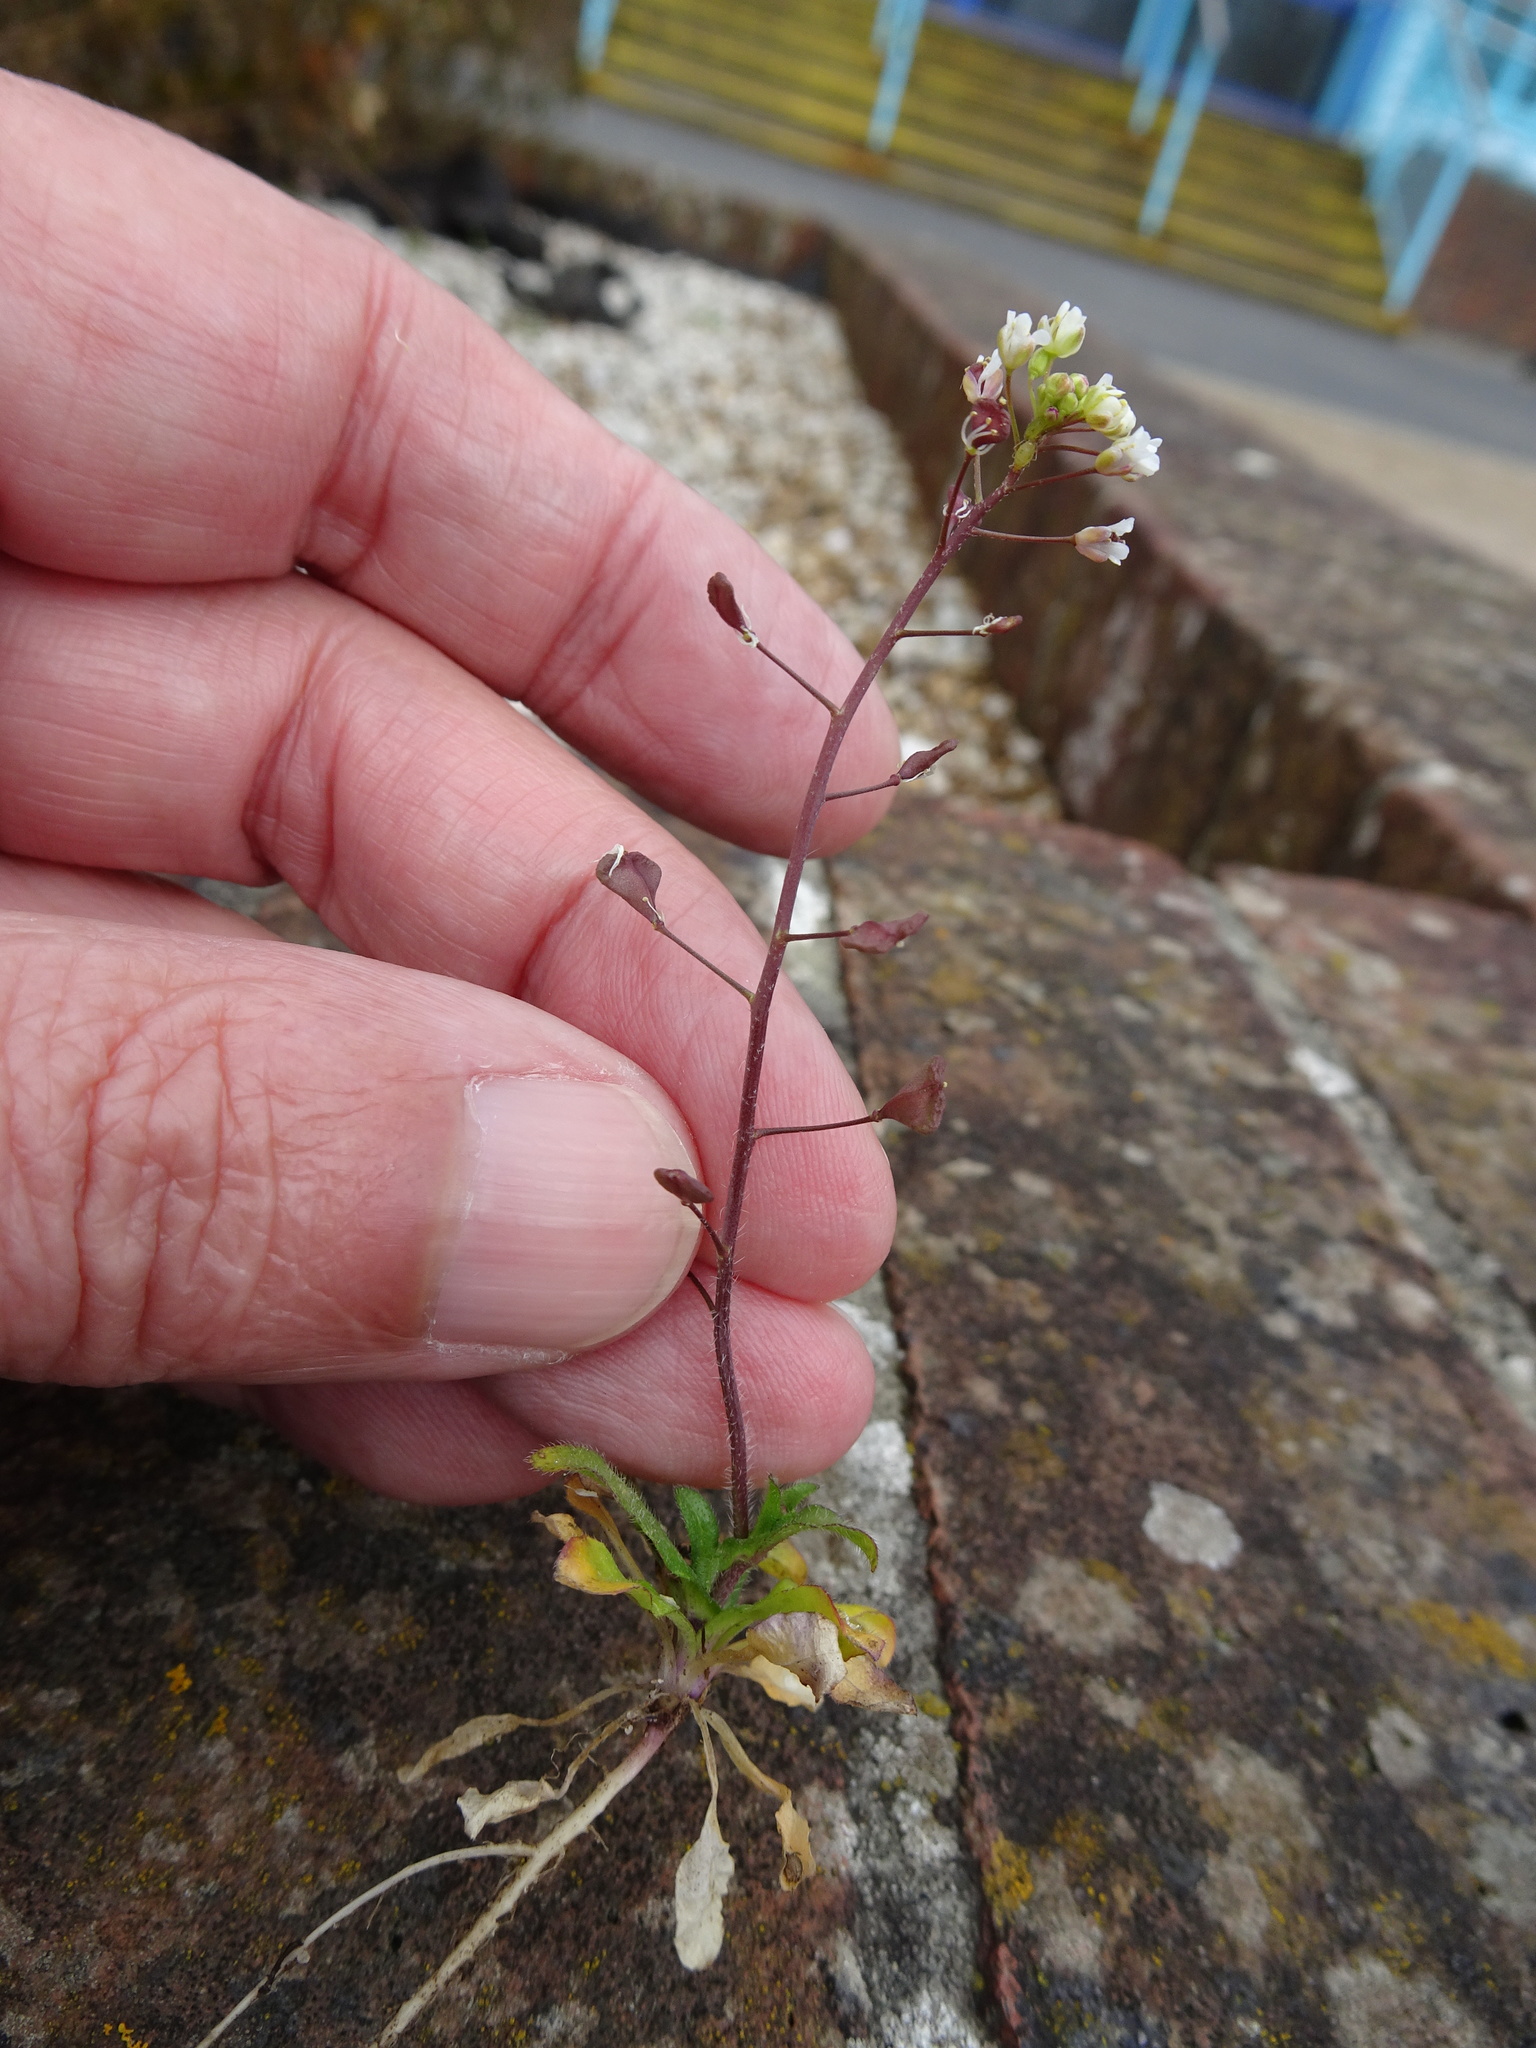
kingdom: Plantae
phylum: Tracheophyta
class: Magnoliopsida
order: Brassicales
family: Brassicaceae
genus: Capsella
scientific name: Capsella rubella
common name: Pink shepherd's-purse
